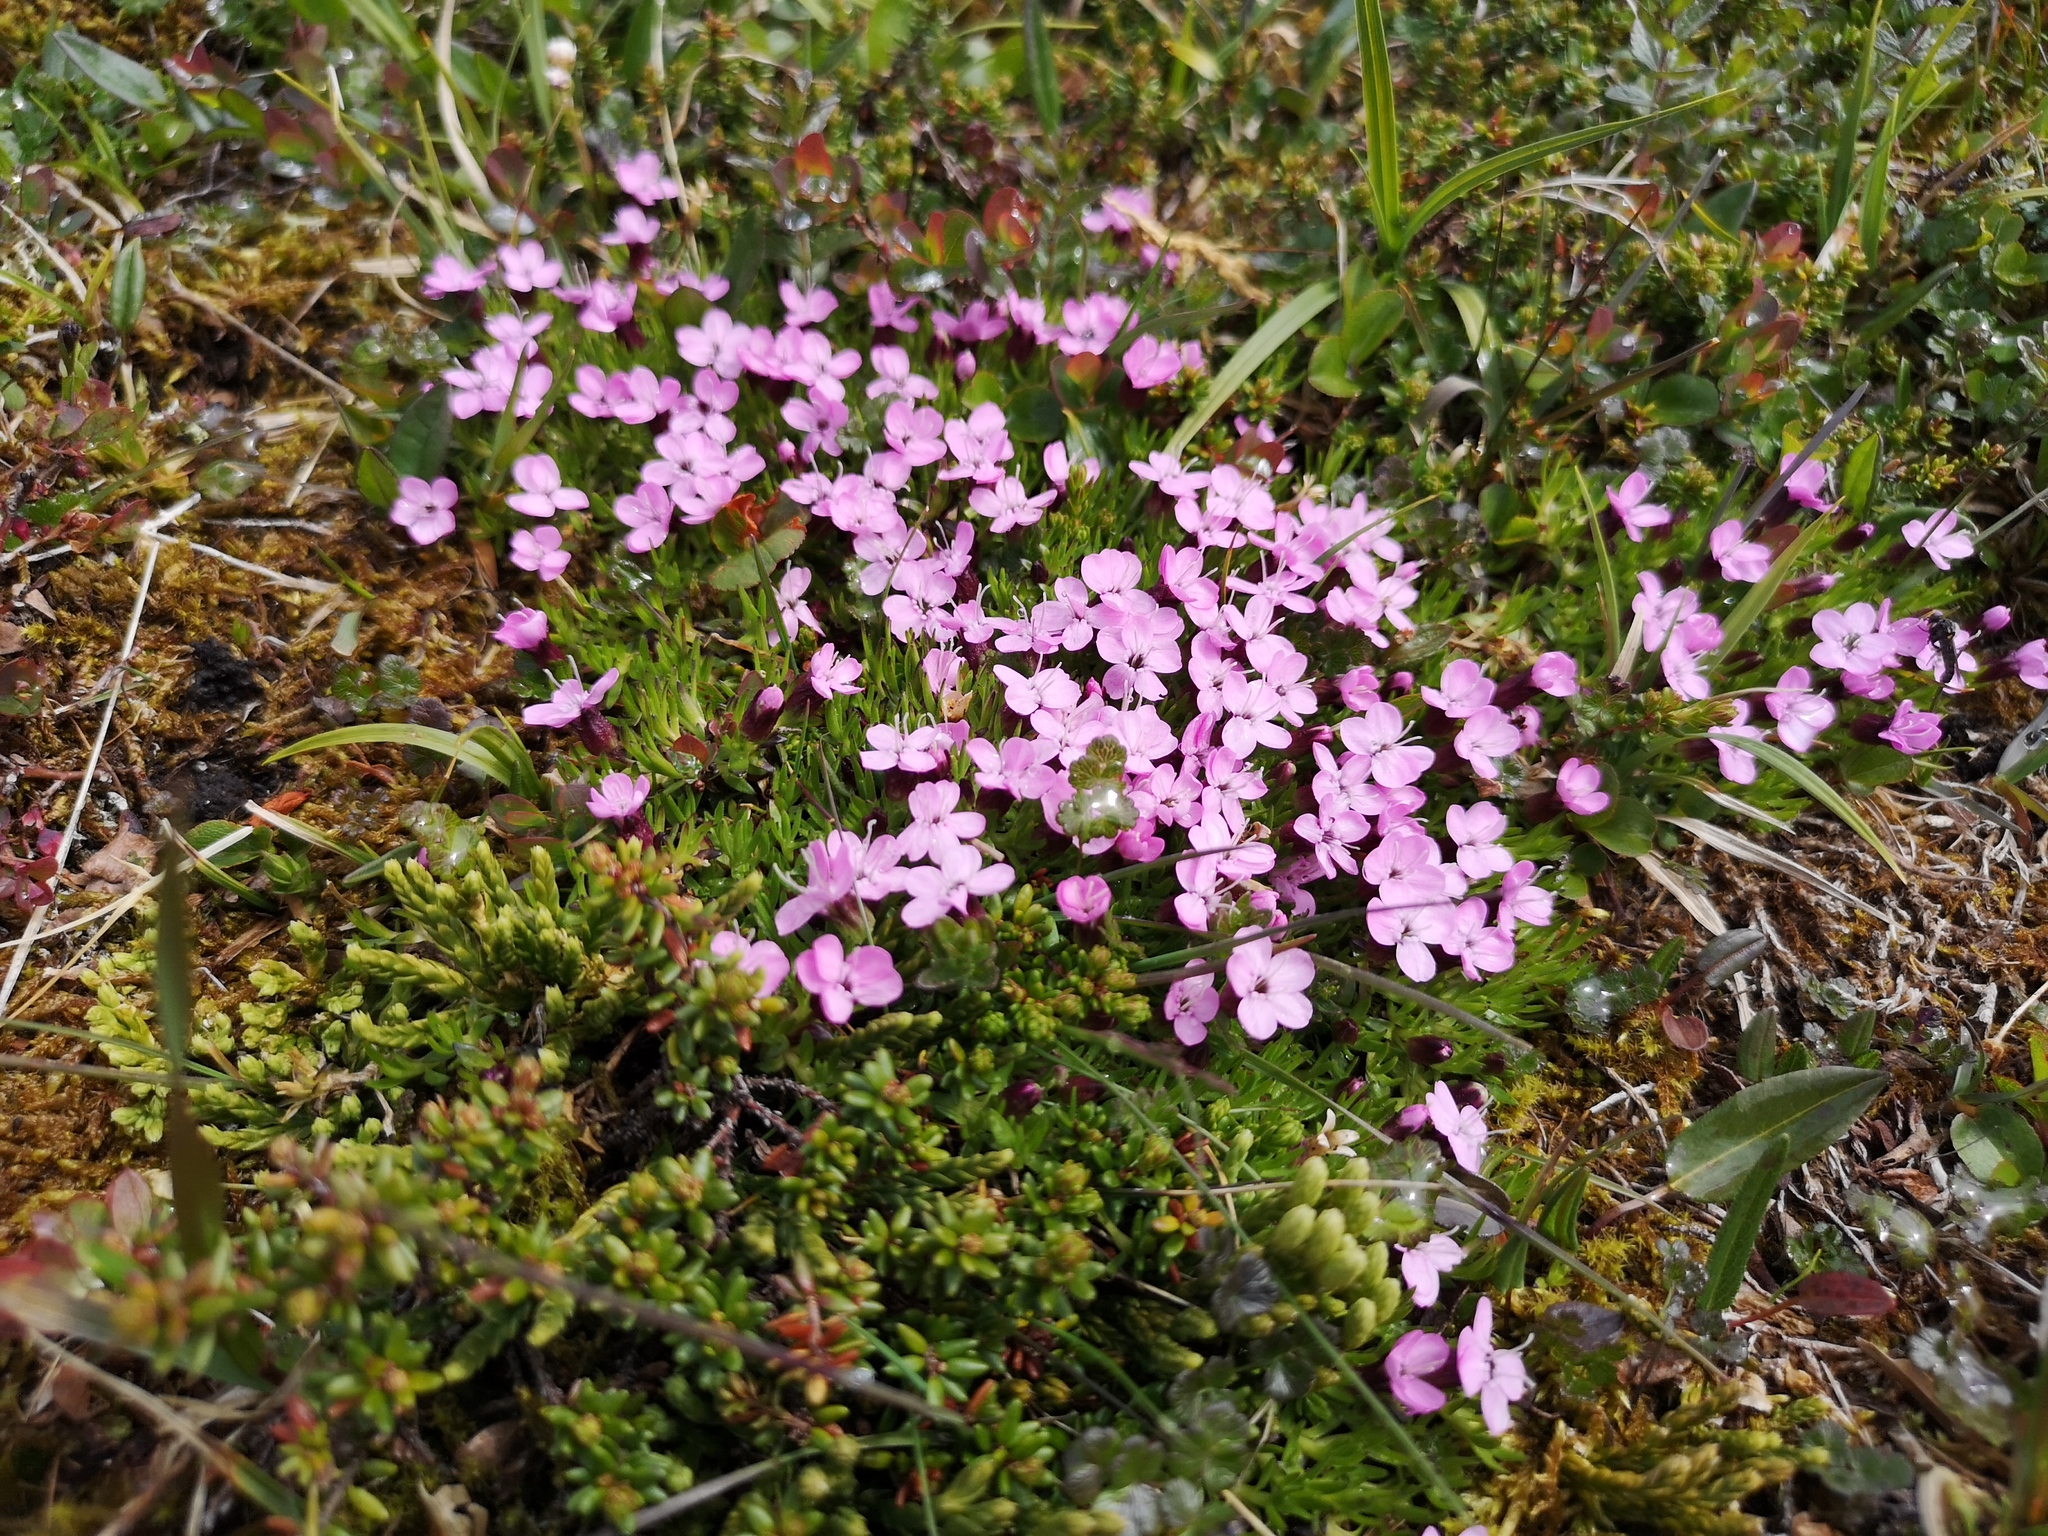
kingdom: Plantae
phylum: Tracheophyta
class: Magnoliopsida
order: Caryophyllales
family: Caryophyllaceae
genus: Silene
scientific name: Silene acaulis
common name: Moss campion
